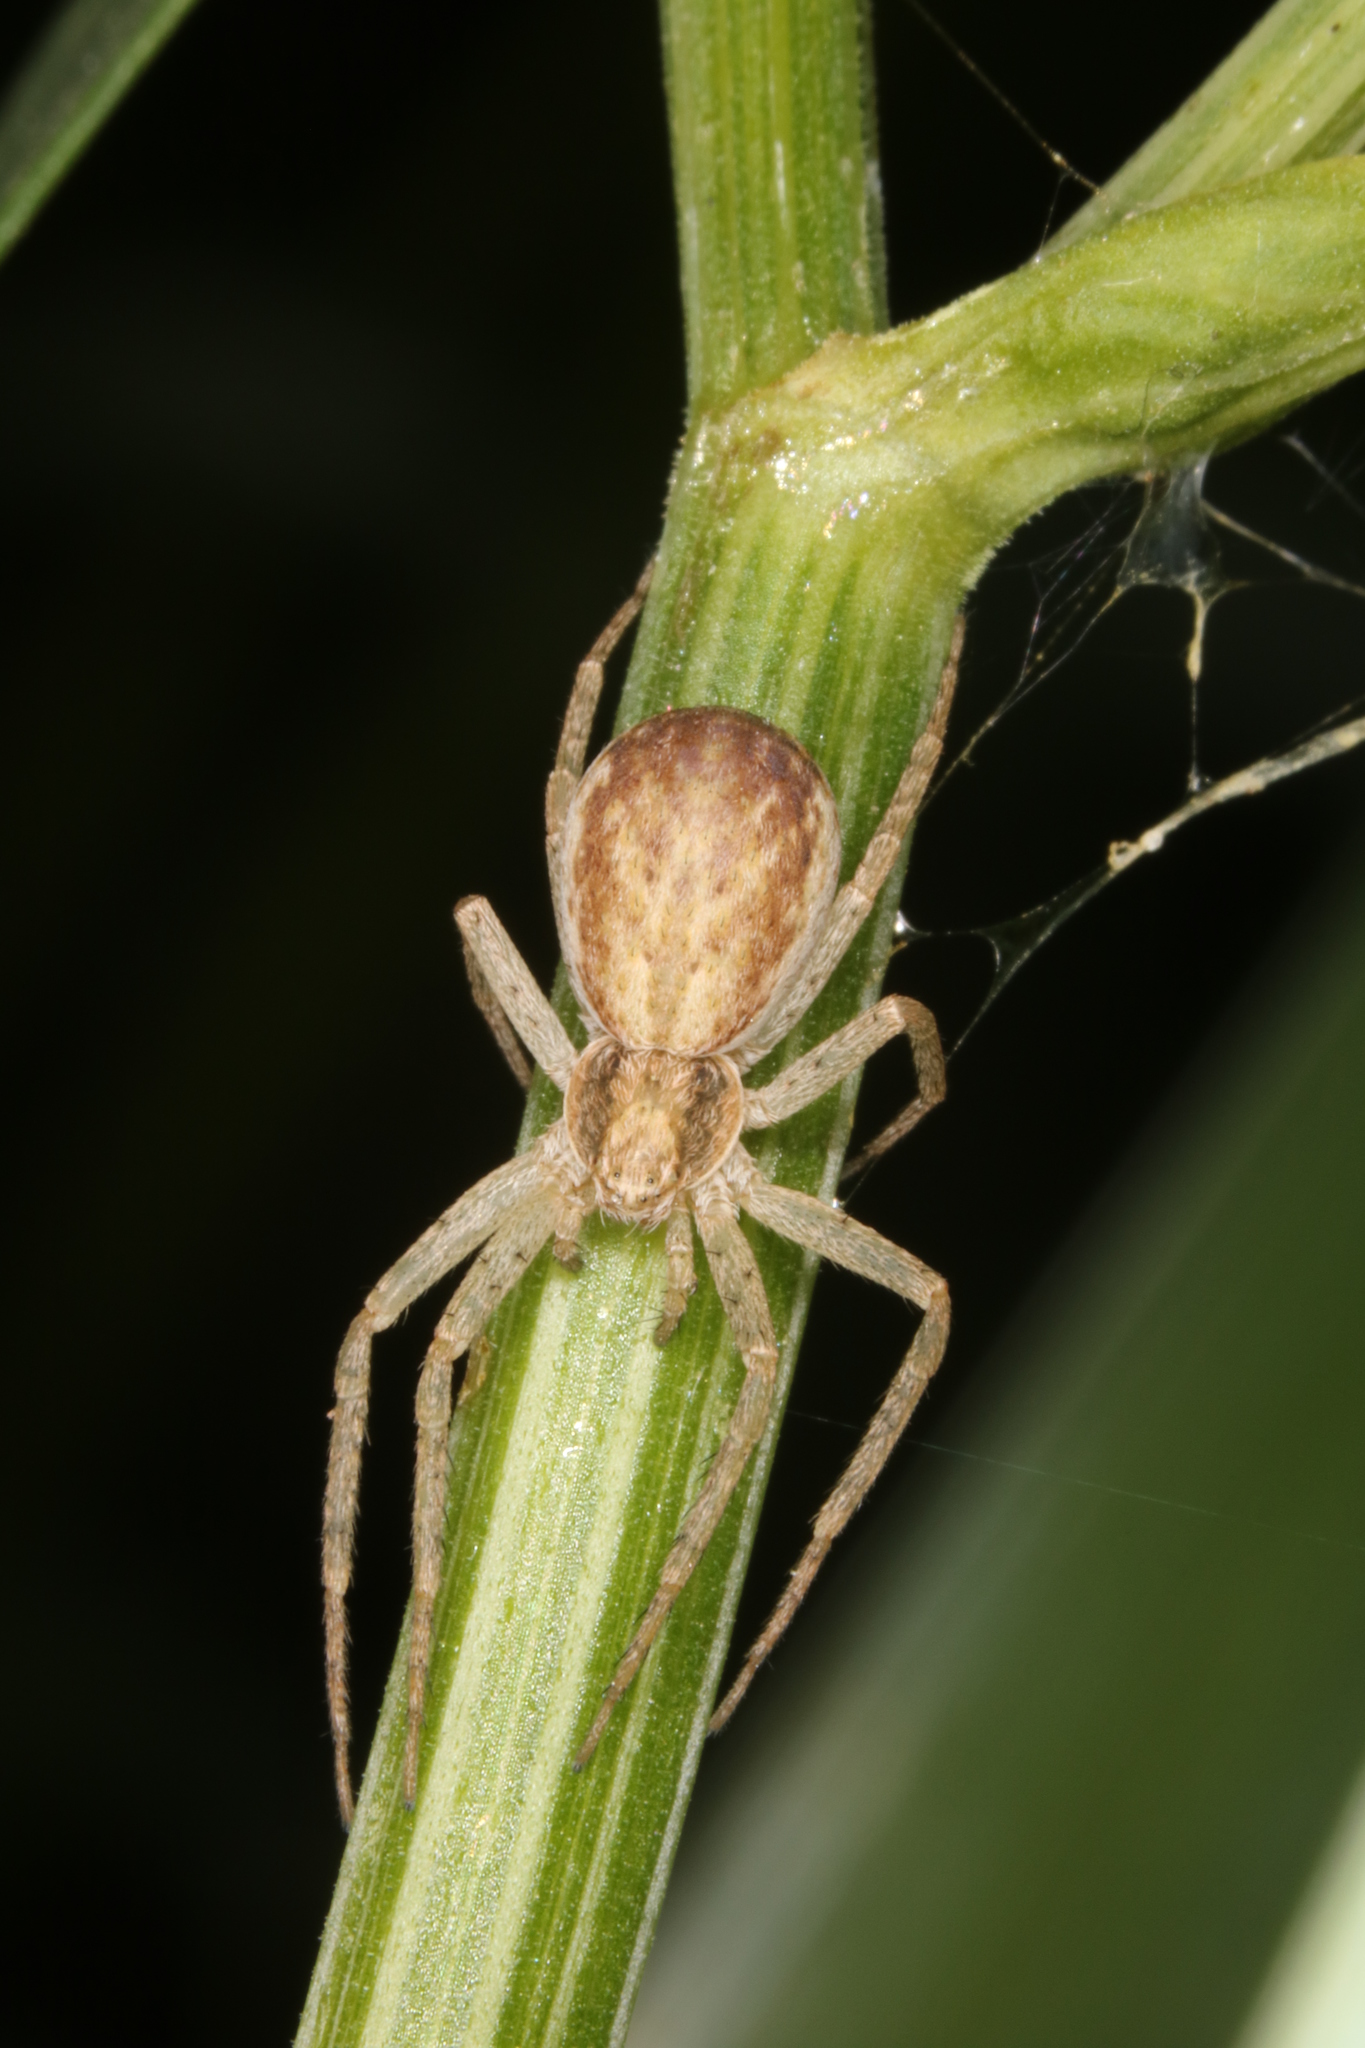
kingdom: Animalia
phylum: Arthropoda
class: Arachnida
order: Araneae
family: Philodromidae
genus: Philodromus
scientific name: Philodromus dispar
